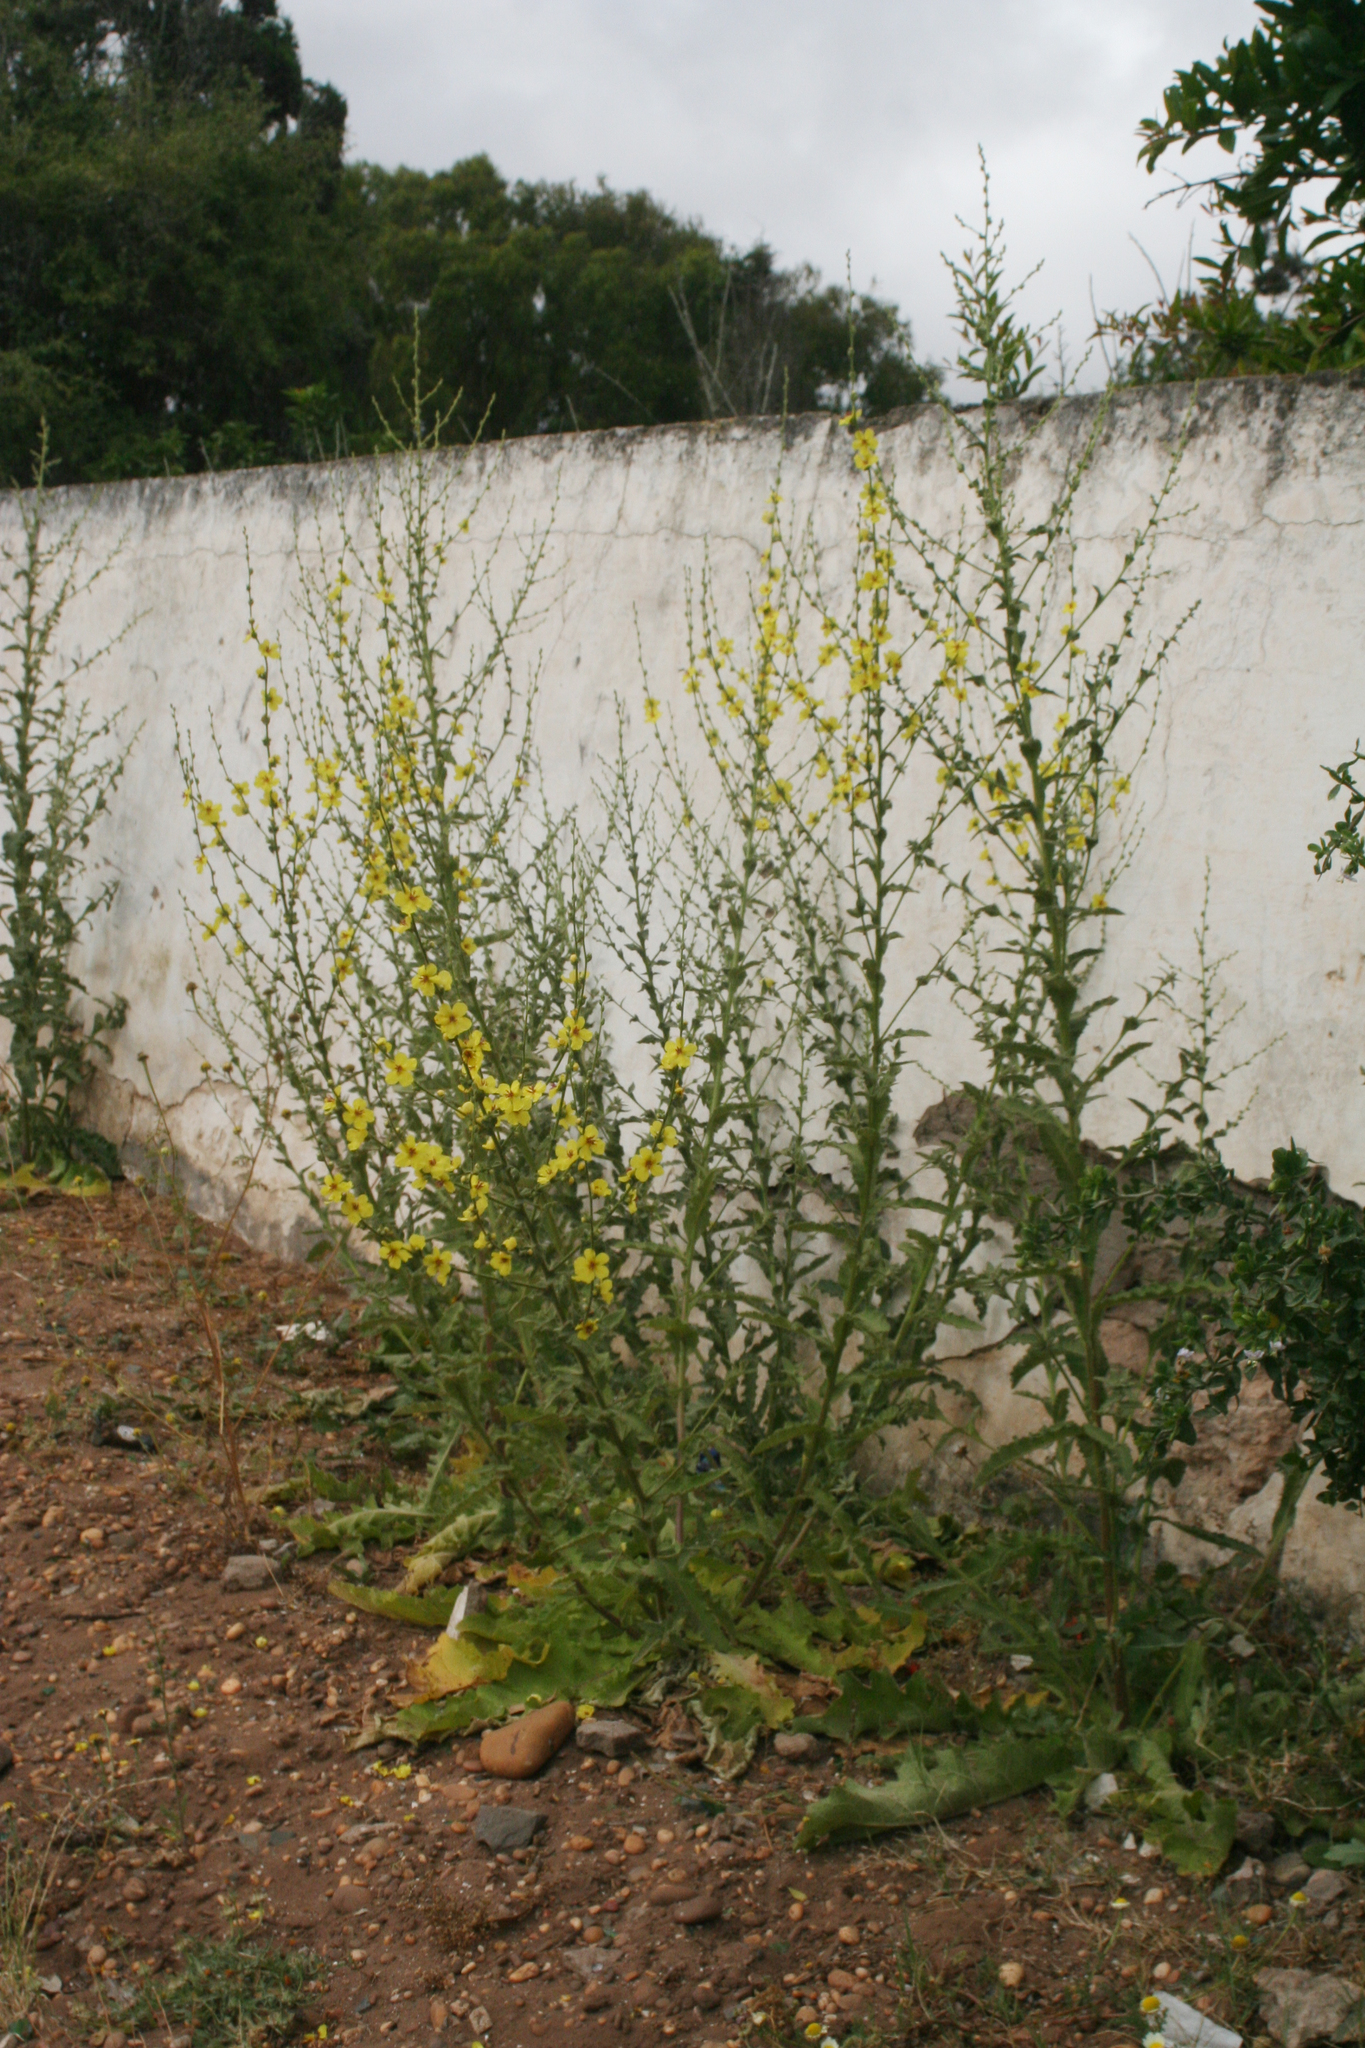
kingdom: Plantae
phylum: Tracheophyta
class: Magnoliopsida
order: Lamiales
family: Scrophulariaceae
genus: Verbascum
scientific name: Verbascum sinuatum
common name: Wavyleaf mullein
